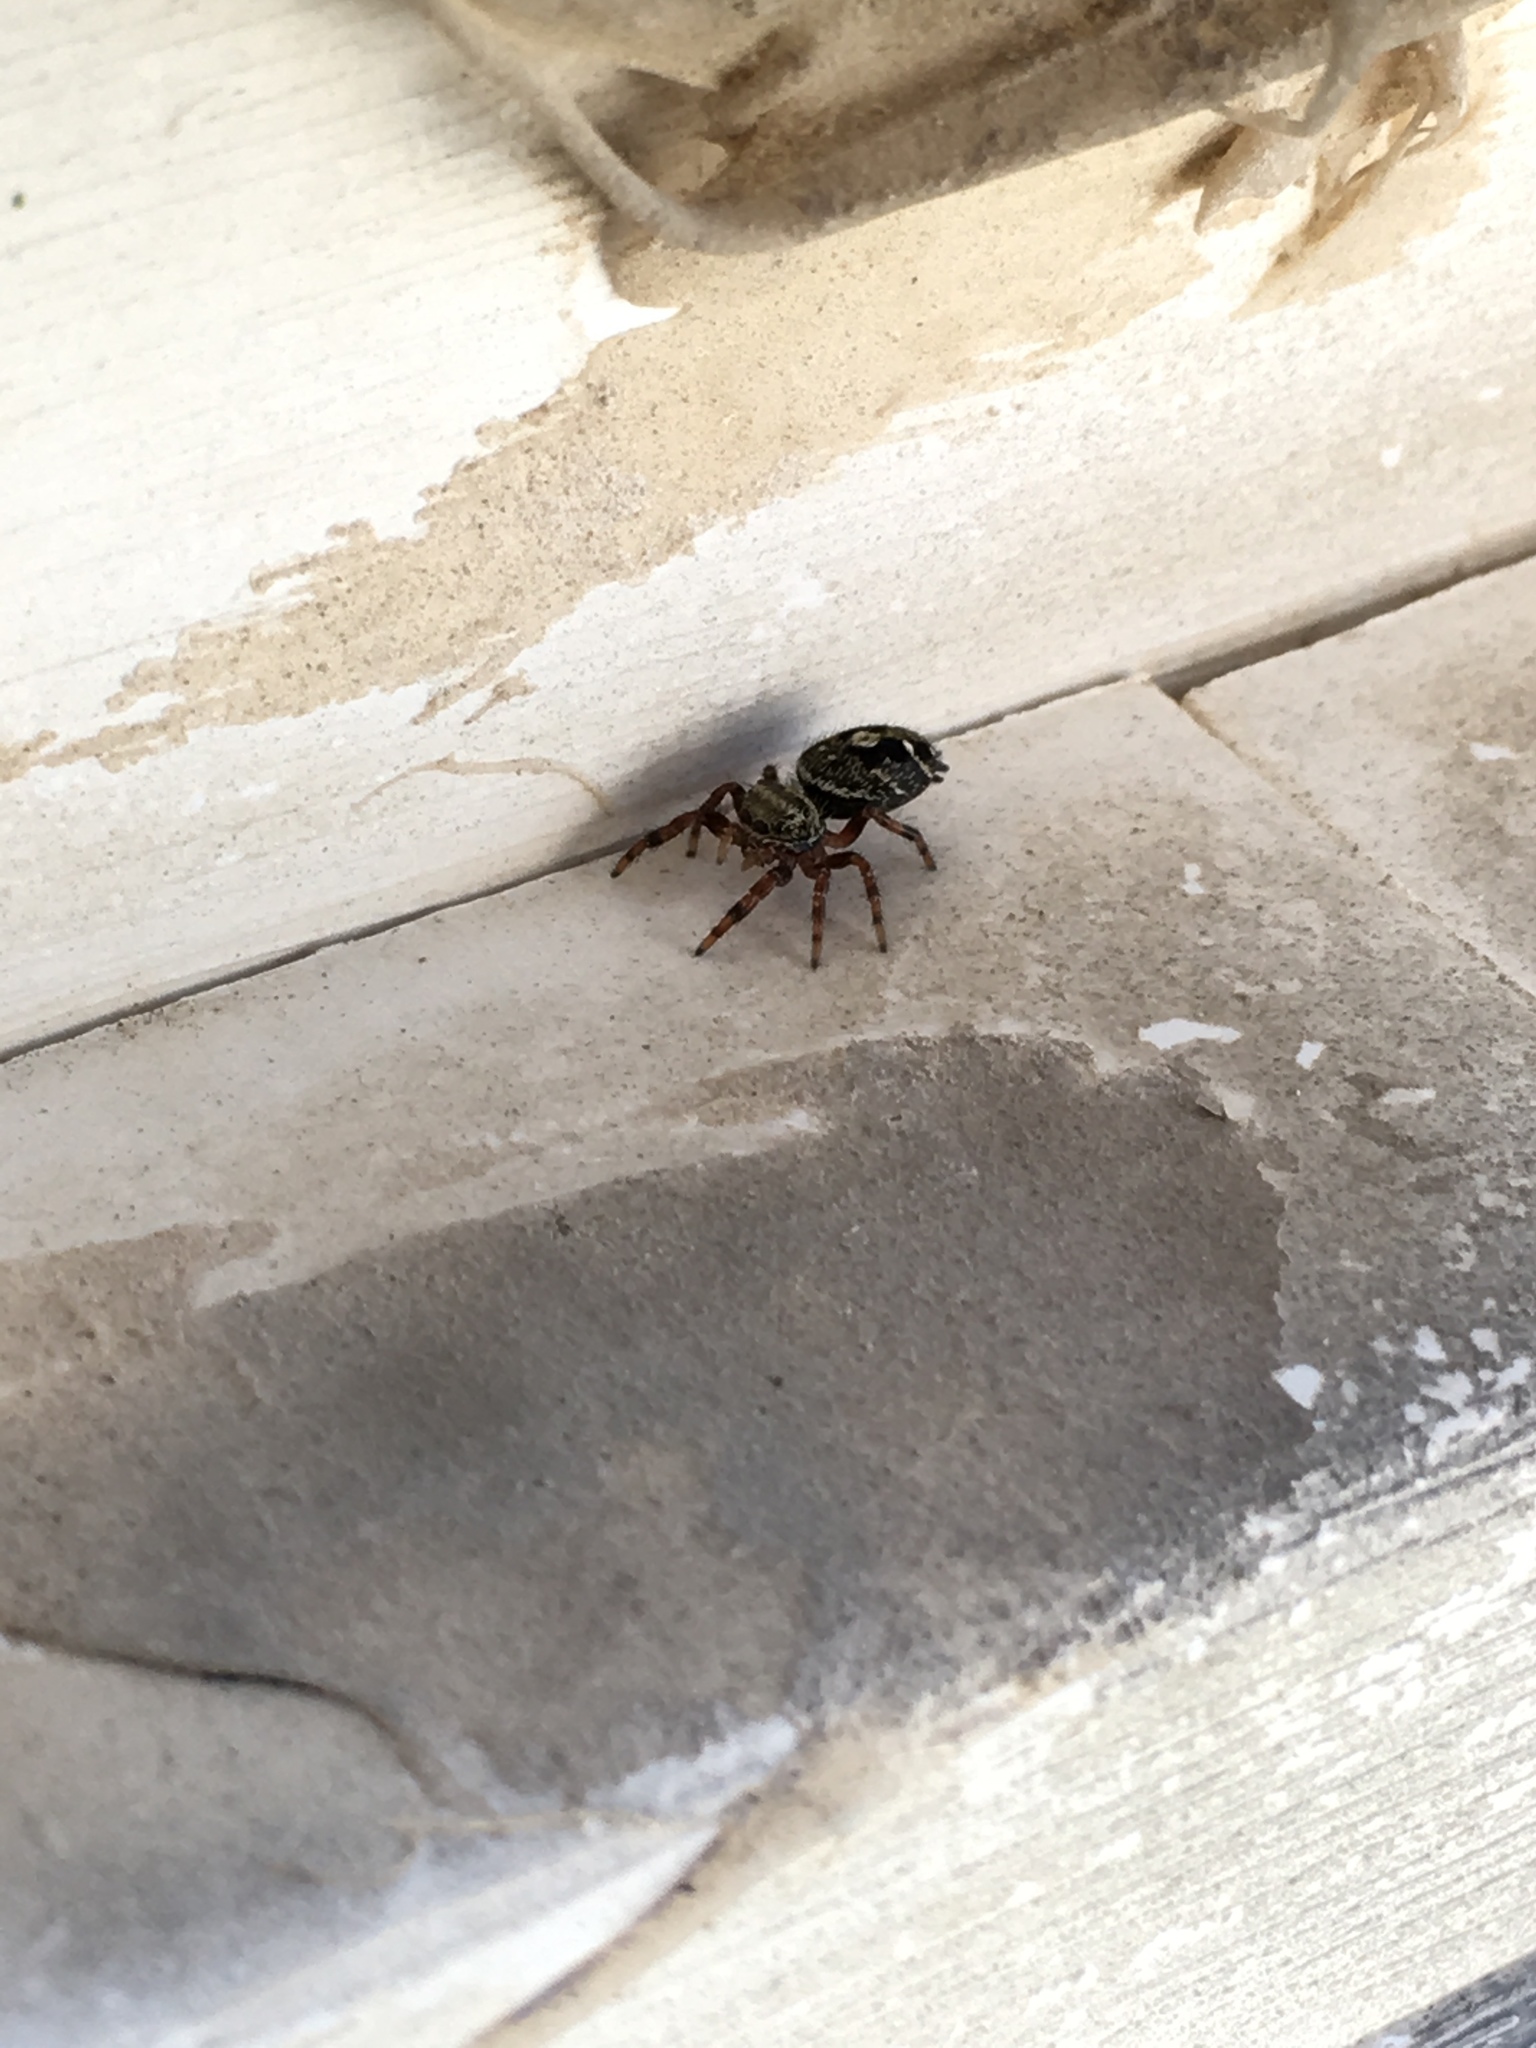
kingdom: Animalia
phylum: Arthropoda
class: Arachnida
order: Araneae
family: Salticidae
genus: Phidippus
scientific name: Phidippus audax
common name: Bold jumper
